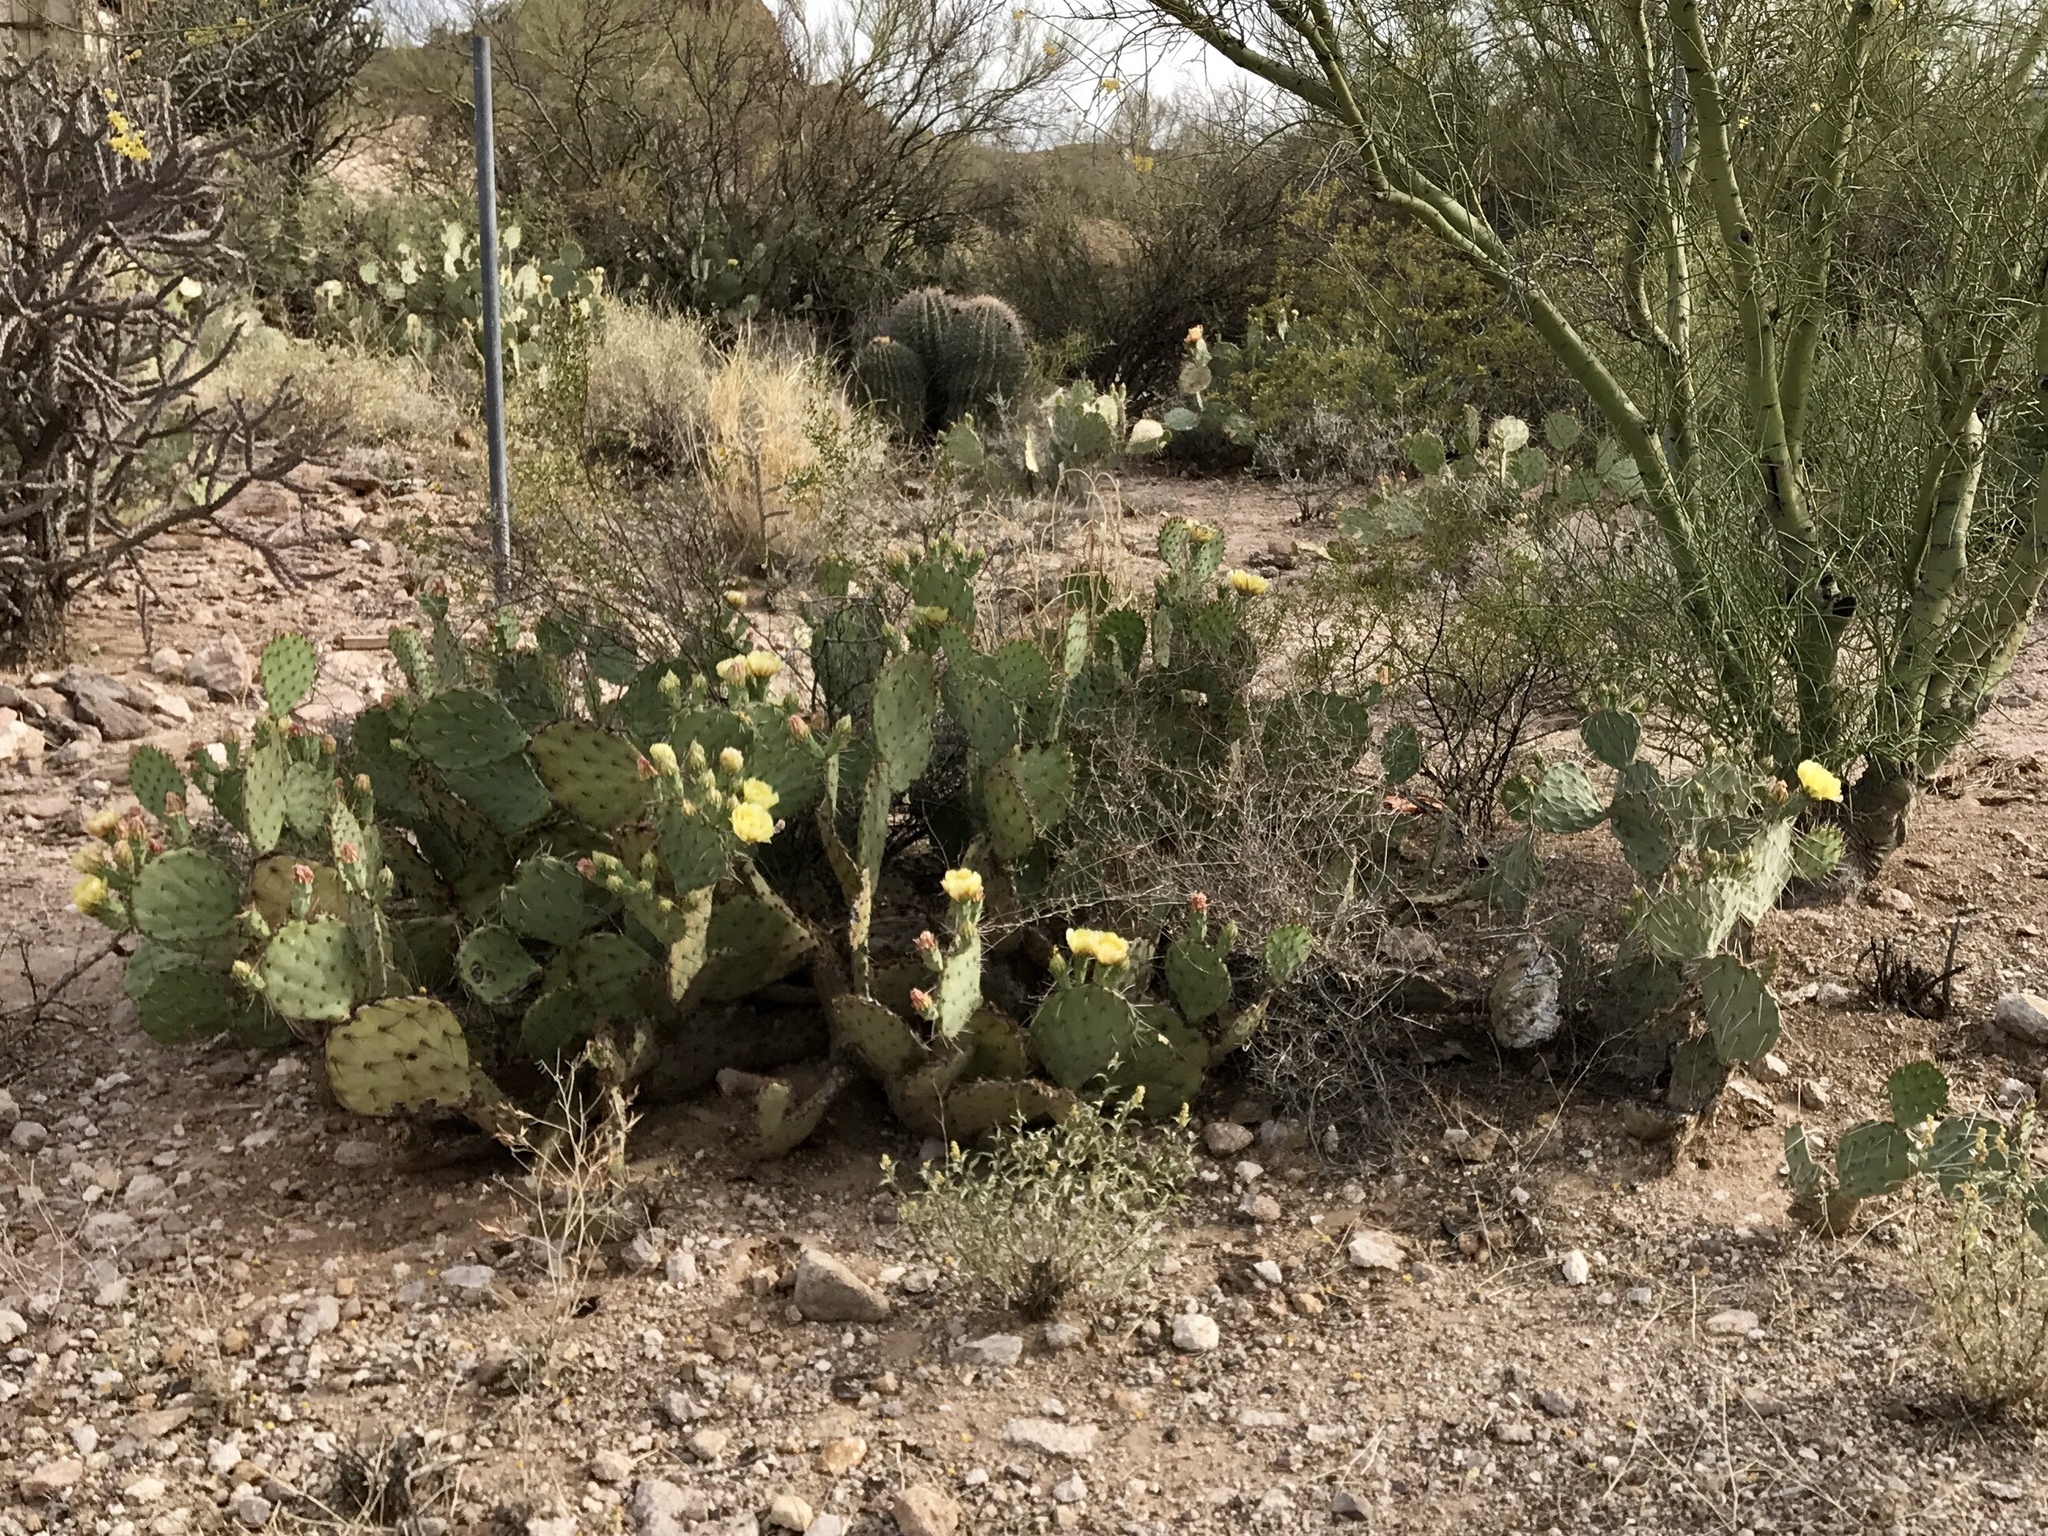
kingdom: Plantae
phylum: Tracheophyta
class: Magnoliopsida
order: Caryophyllales
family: Cactaceae
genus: Opuntia
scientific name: Opuntia engelmannii
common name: Cactus-apple
